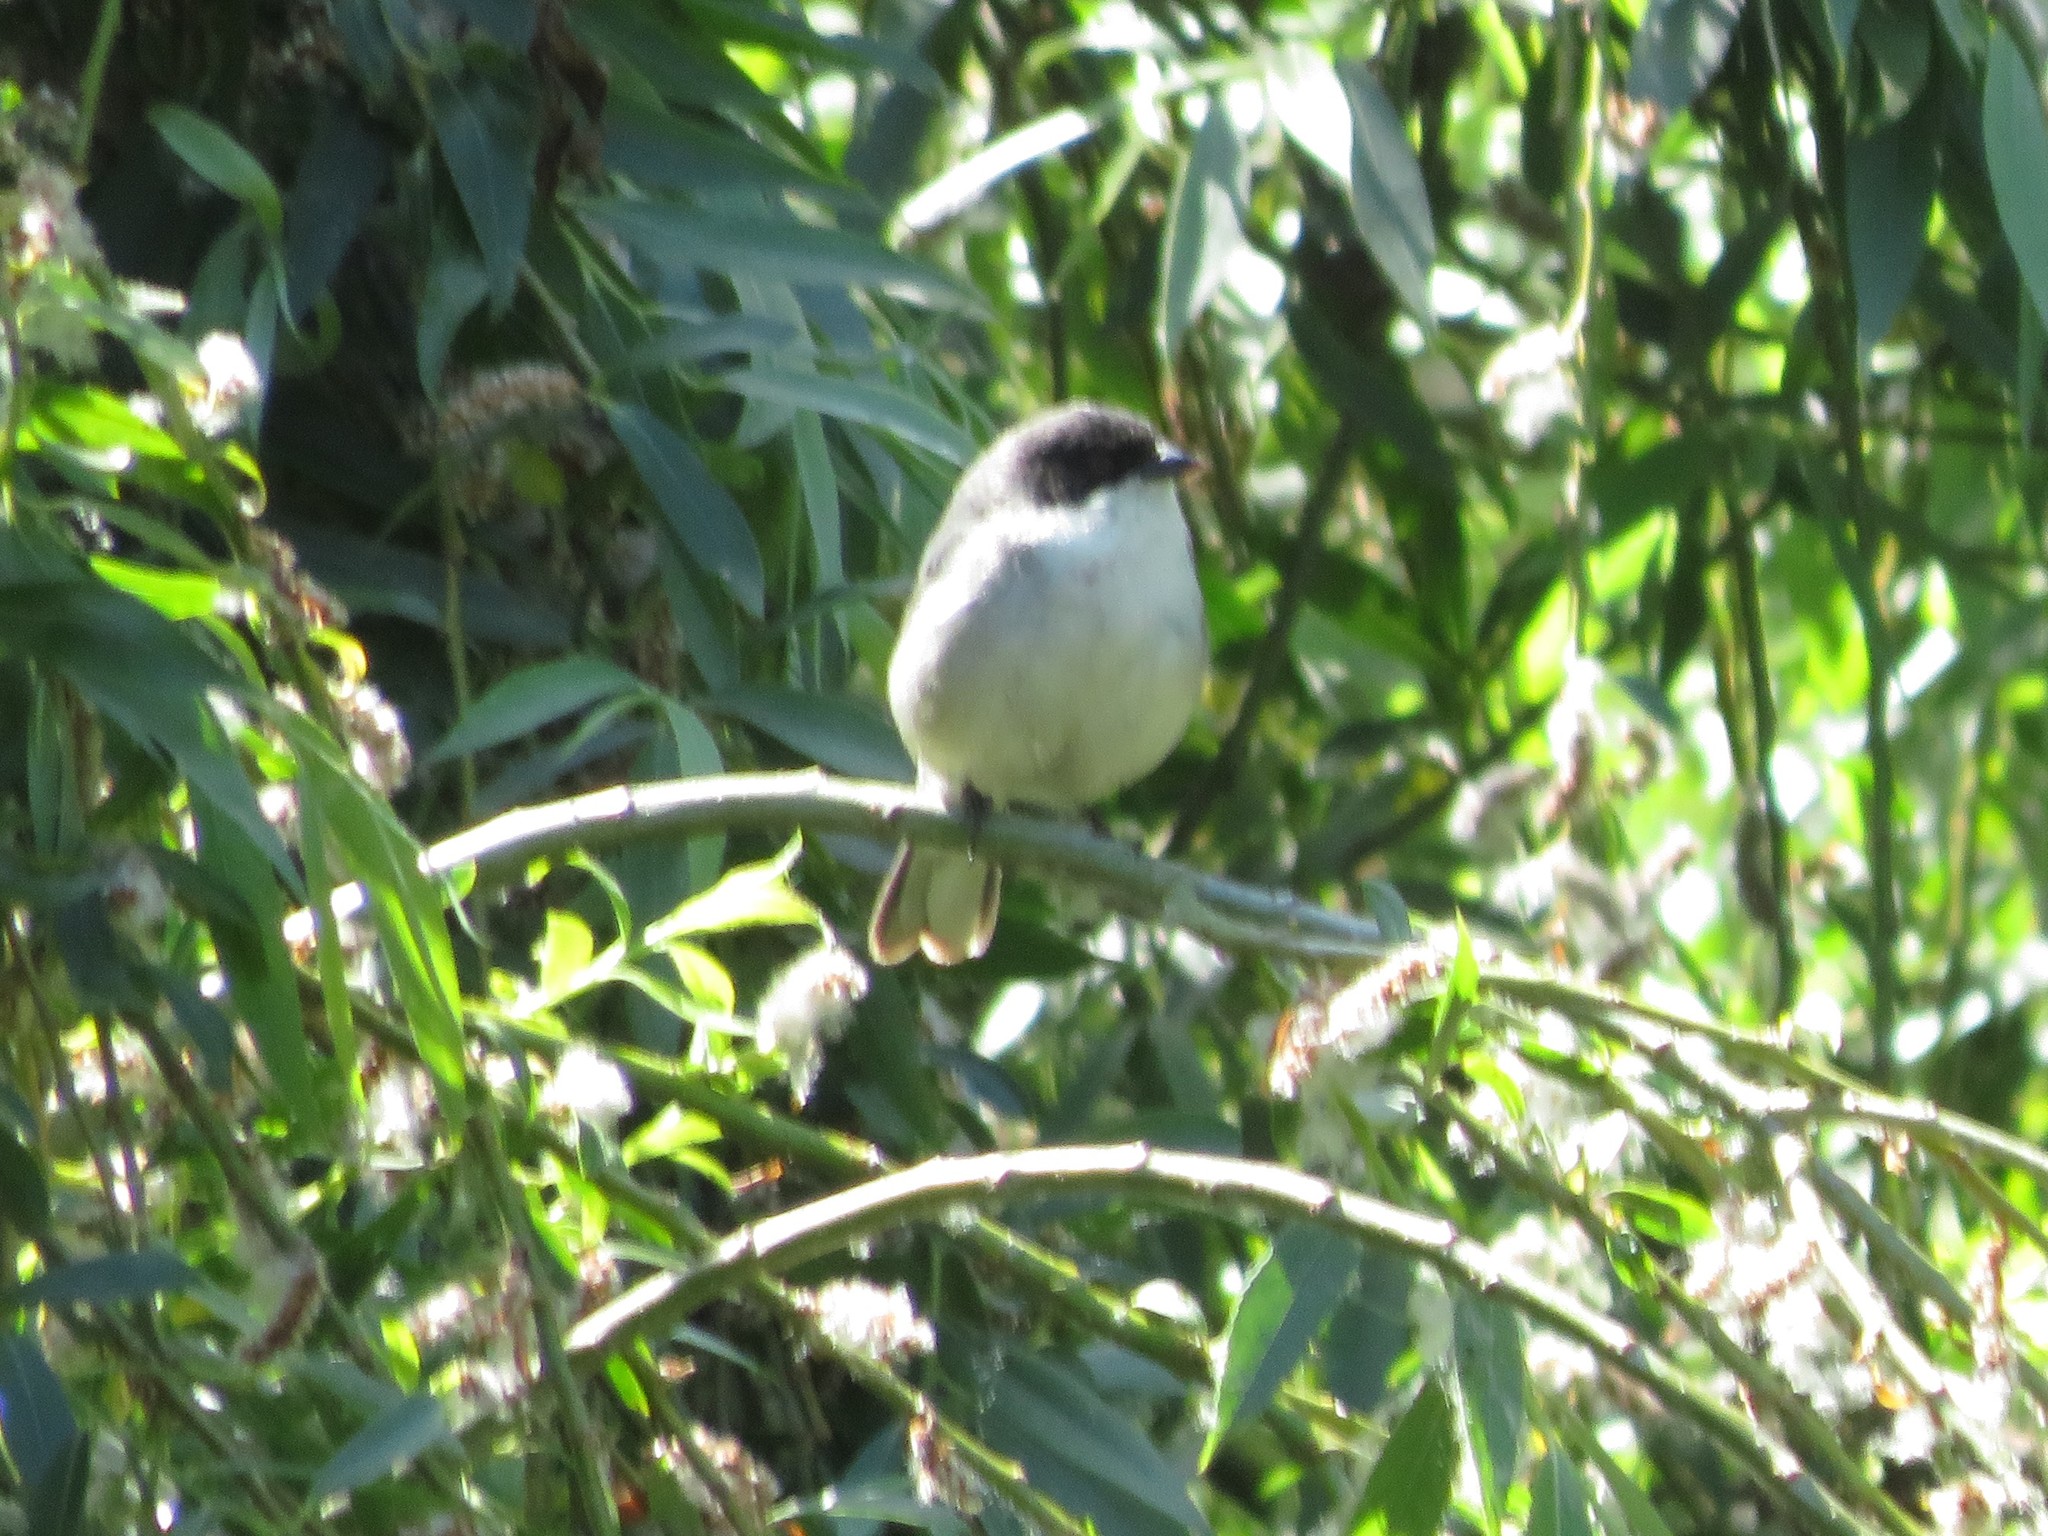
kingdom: Animalia
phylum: Chordata
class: Aves
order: Passeriformes
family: Thraupidae
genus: Microspingus
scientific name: Microspingus melanoleucus
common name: Black-capped warbling-finch
